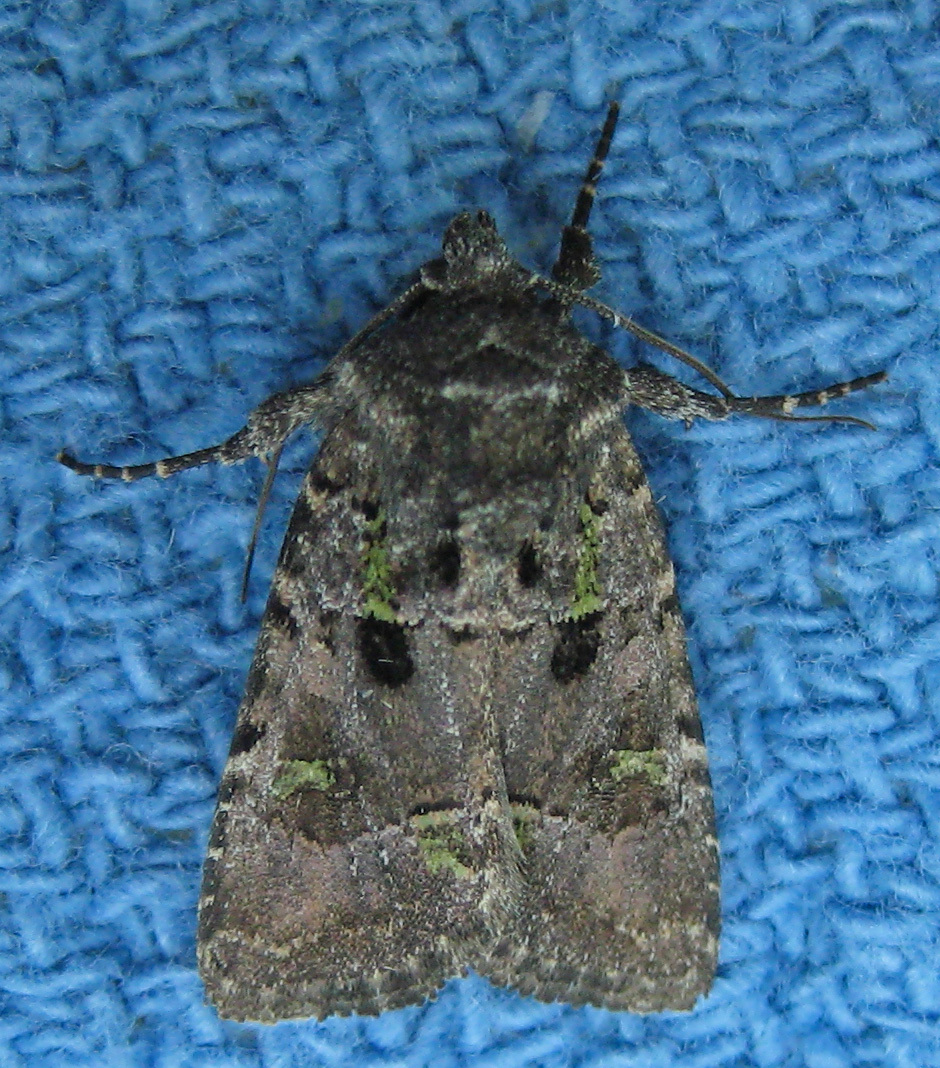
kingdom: Animalia
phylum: Arthropoda
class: Insecta
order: Lepidoptera
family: Noctuidae
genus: Lacinipolia
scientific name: Lacinipolia renigera
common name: Kidney-spotted minor
